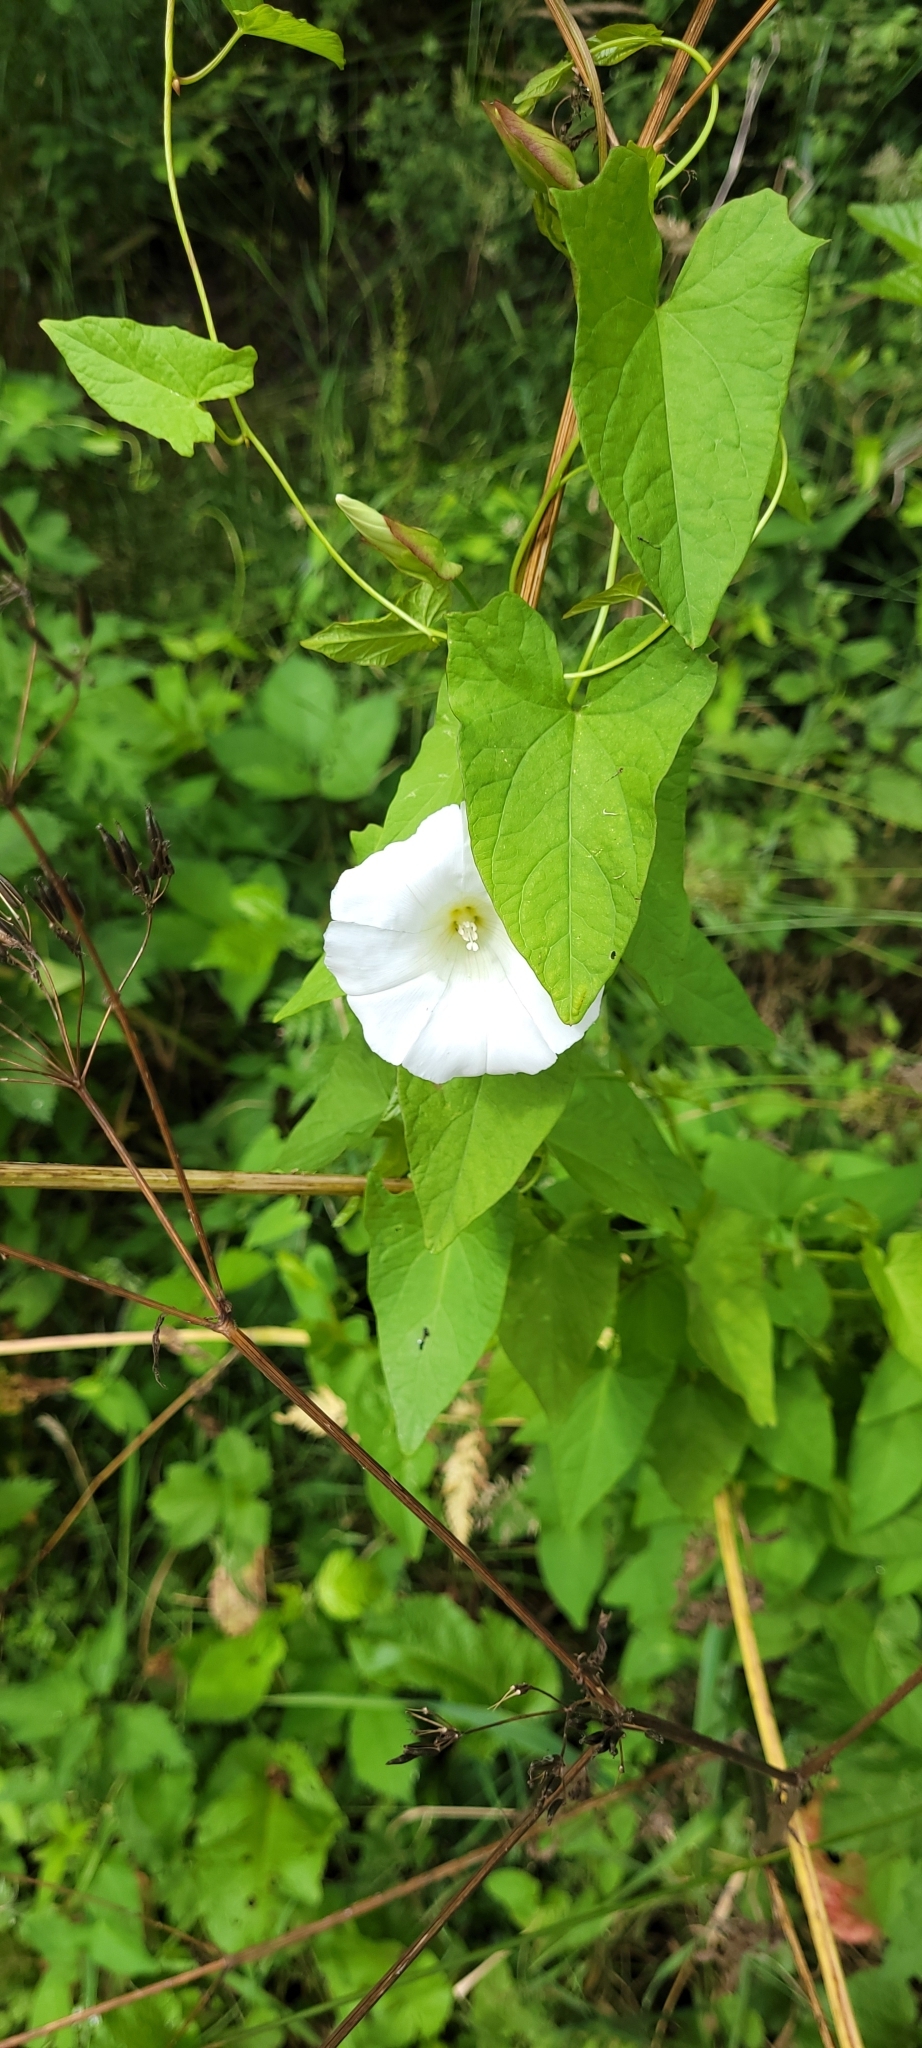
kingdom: Plantae
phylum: Tracheophyta
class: Magnoliopsida
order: Solanales
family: Convolvulaceae
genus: Calystegia
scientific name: Calystegia sepium
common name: Hedge bindweed
